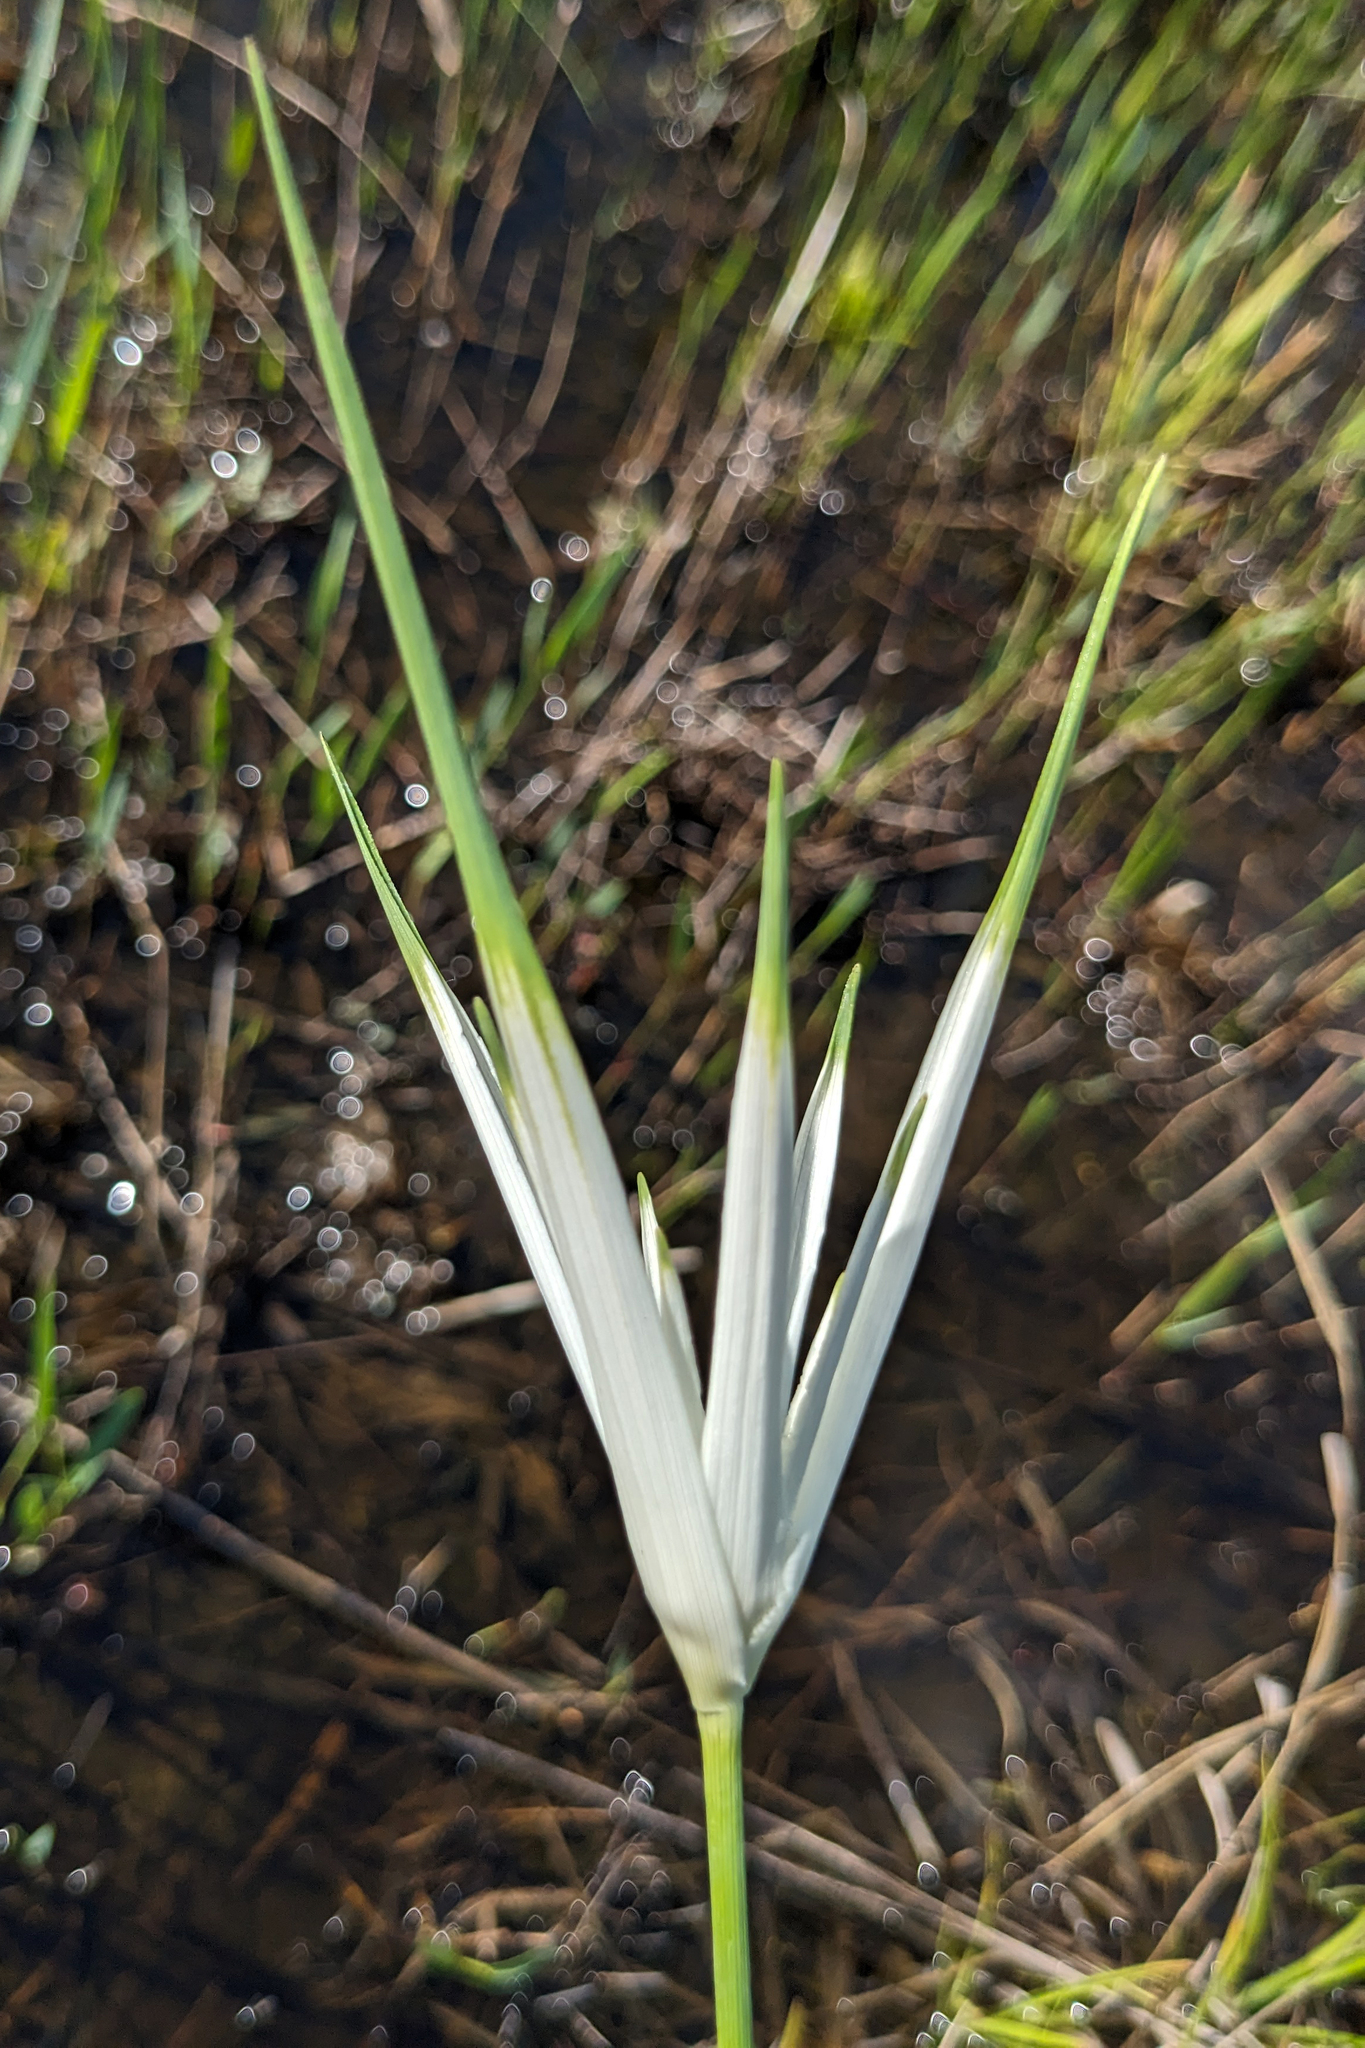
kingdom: Plantae
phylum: Tracheophyta
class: Liliopsida
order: Poales
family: Cyperaceae
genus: Rhynchospora
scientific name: Rhynchospora latifolia
